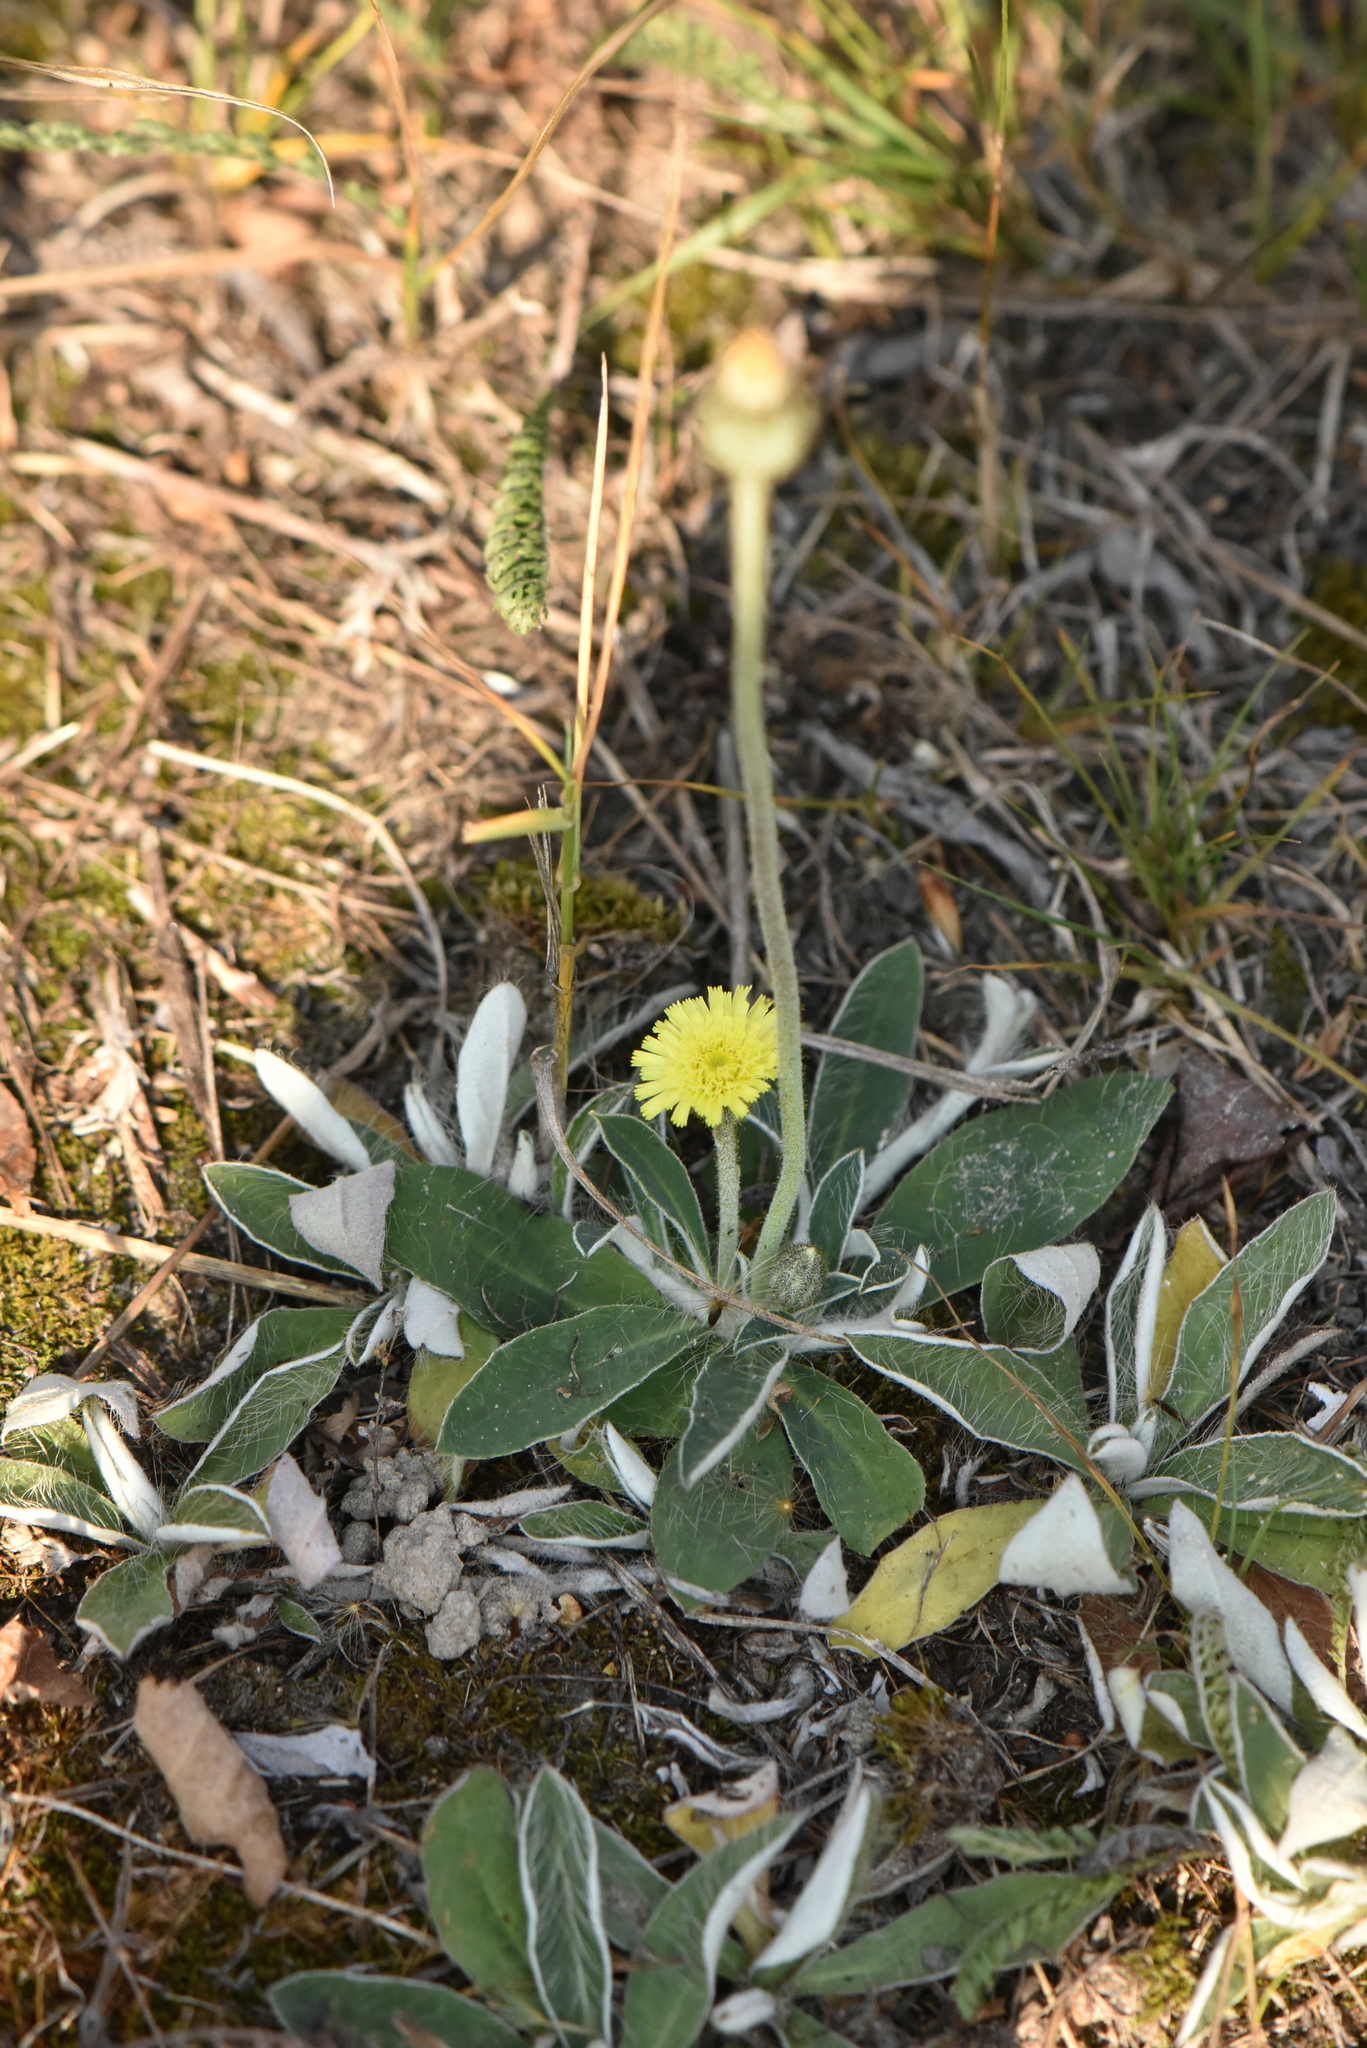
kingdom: Plantae
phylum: Tracheophyta
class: Magnoliopsida
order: Asterales
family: Asteraceae
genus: Pilosella
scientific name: Pilosella officinarum
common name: Mouse-ear hawkweed
